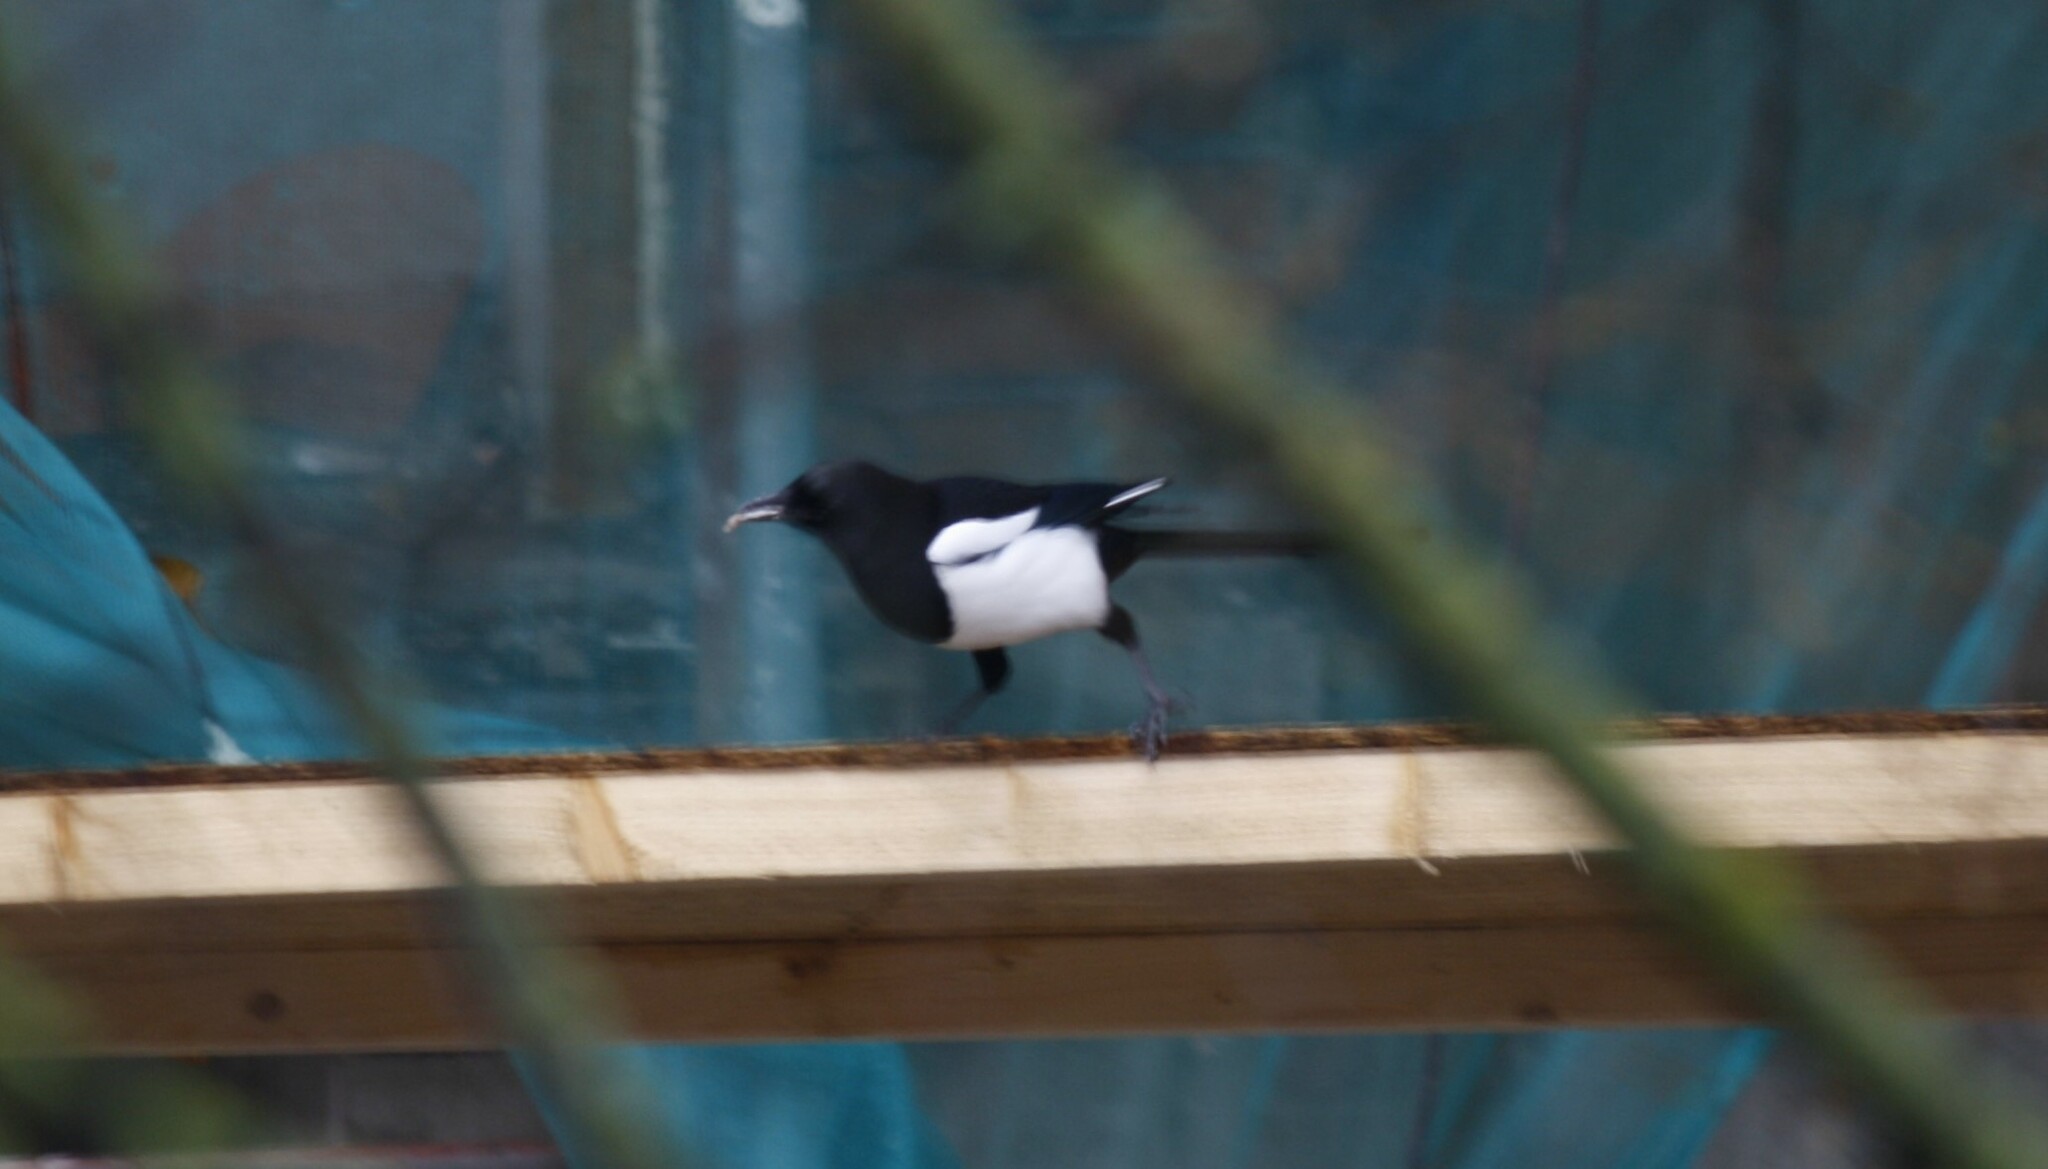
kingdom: Animalia
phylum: Chordata
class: Aves
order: Passeriformes
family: Corvidae
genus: Pica
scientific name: Pica pica
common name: Eurasian magpie
